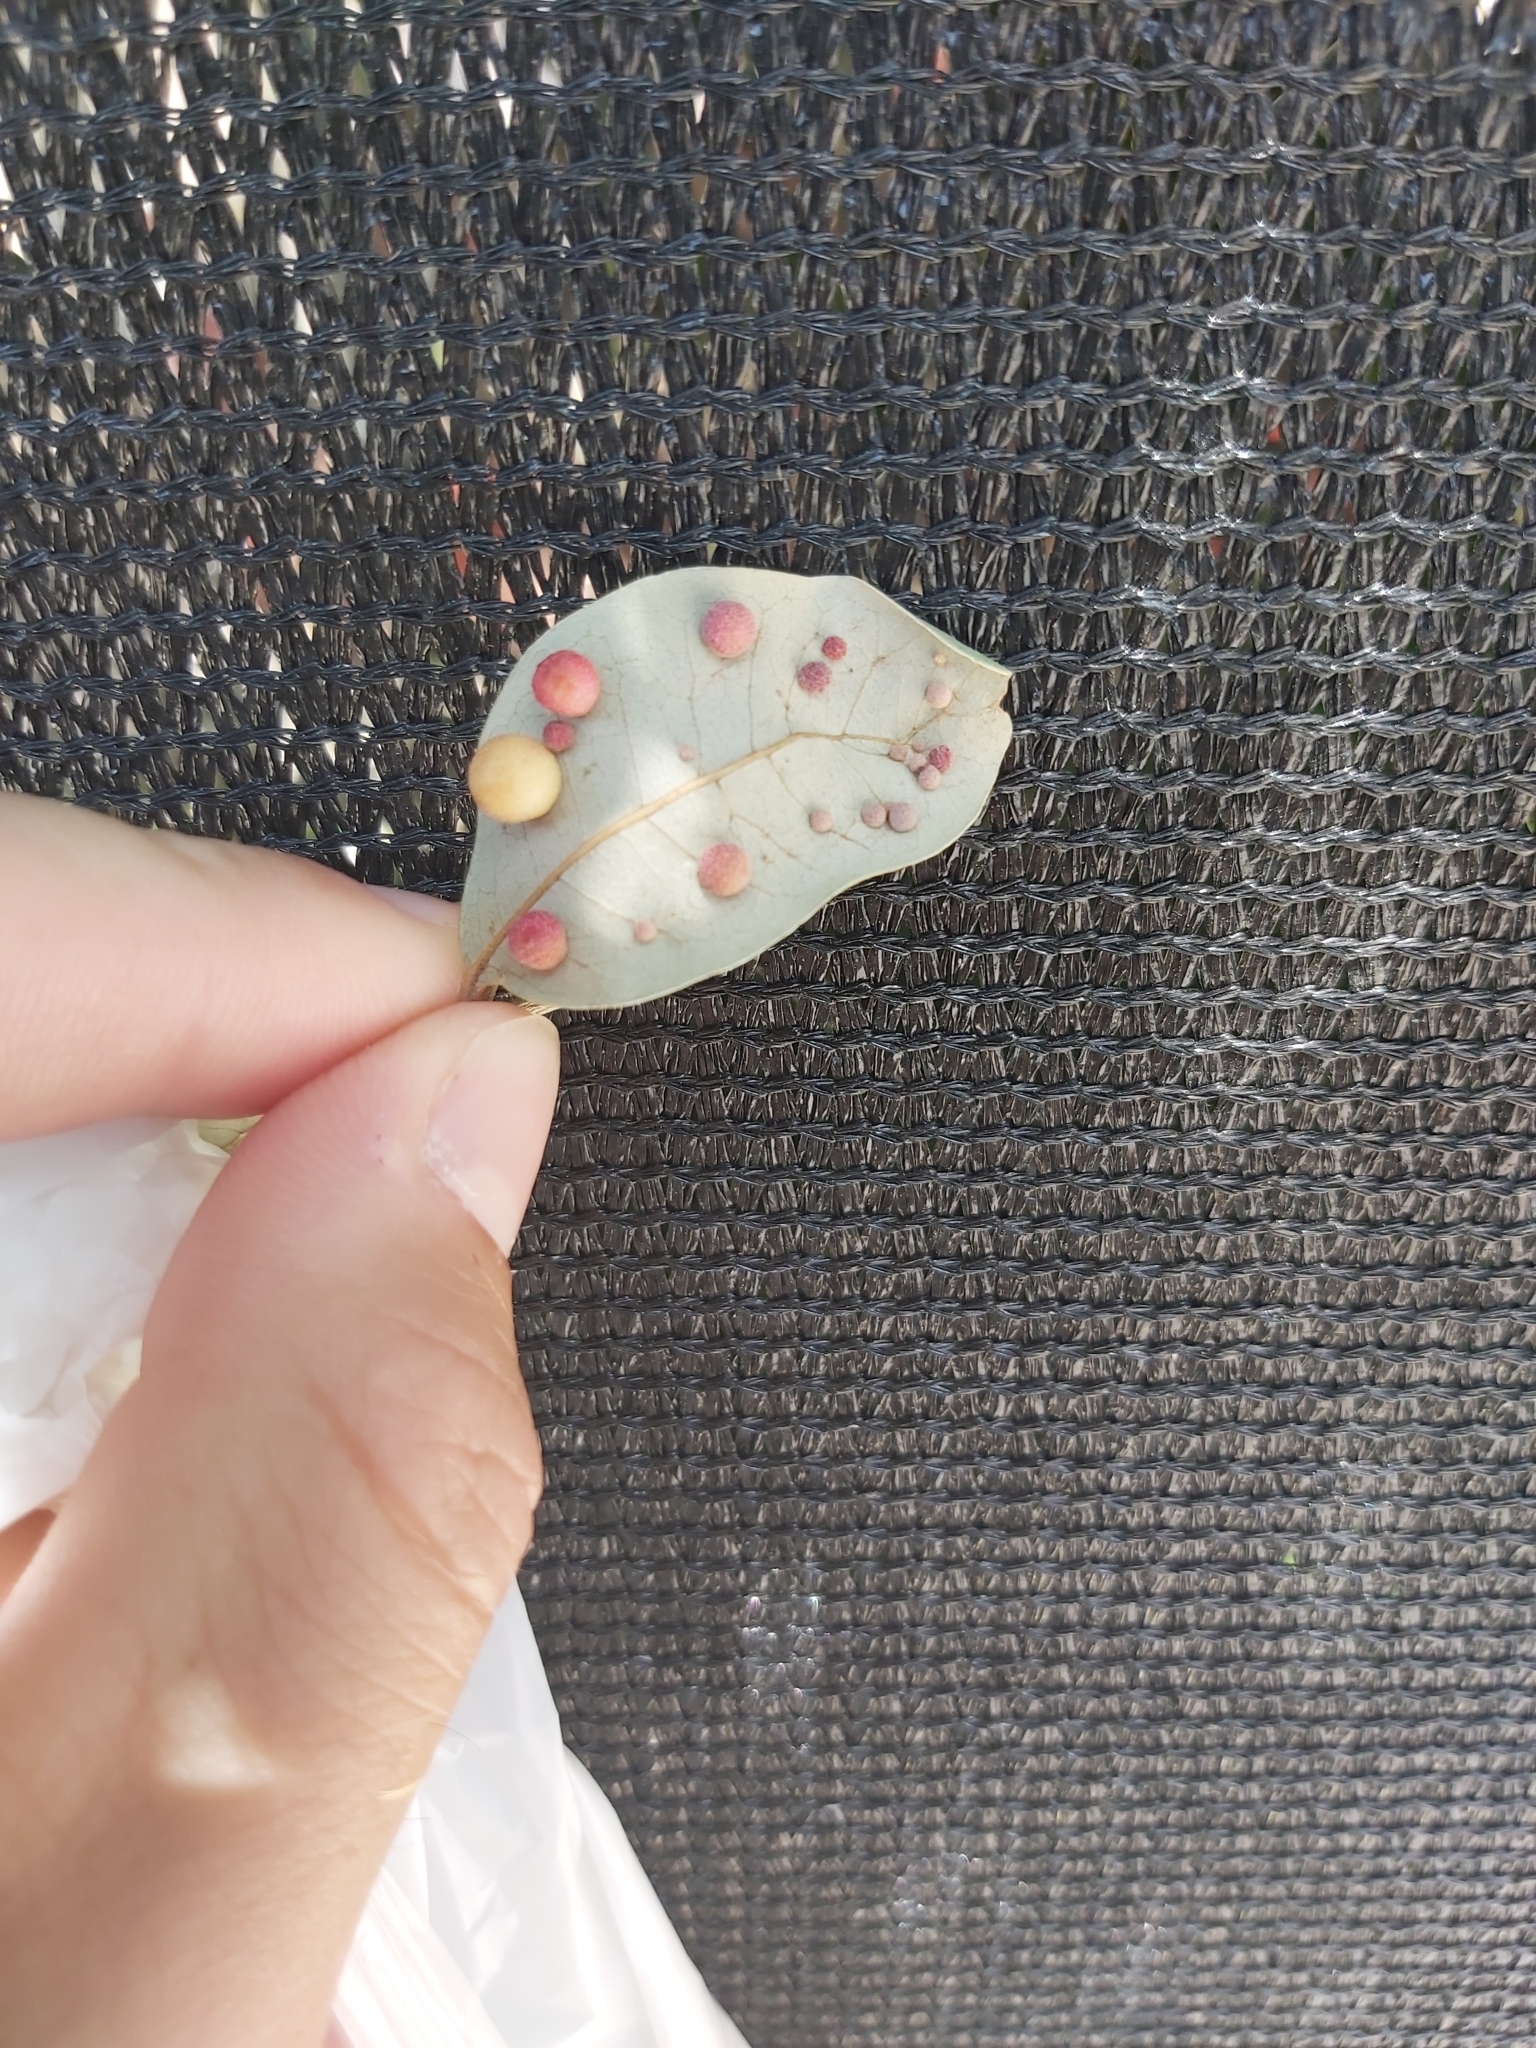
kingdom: Animalia
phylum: Arthropoda
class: Insecta
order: Hymenoptera
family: Cynipidae
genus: Belonocnema
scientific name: Belonocnema kinseyi
